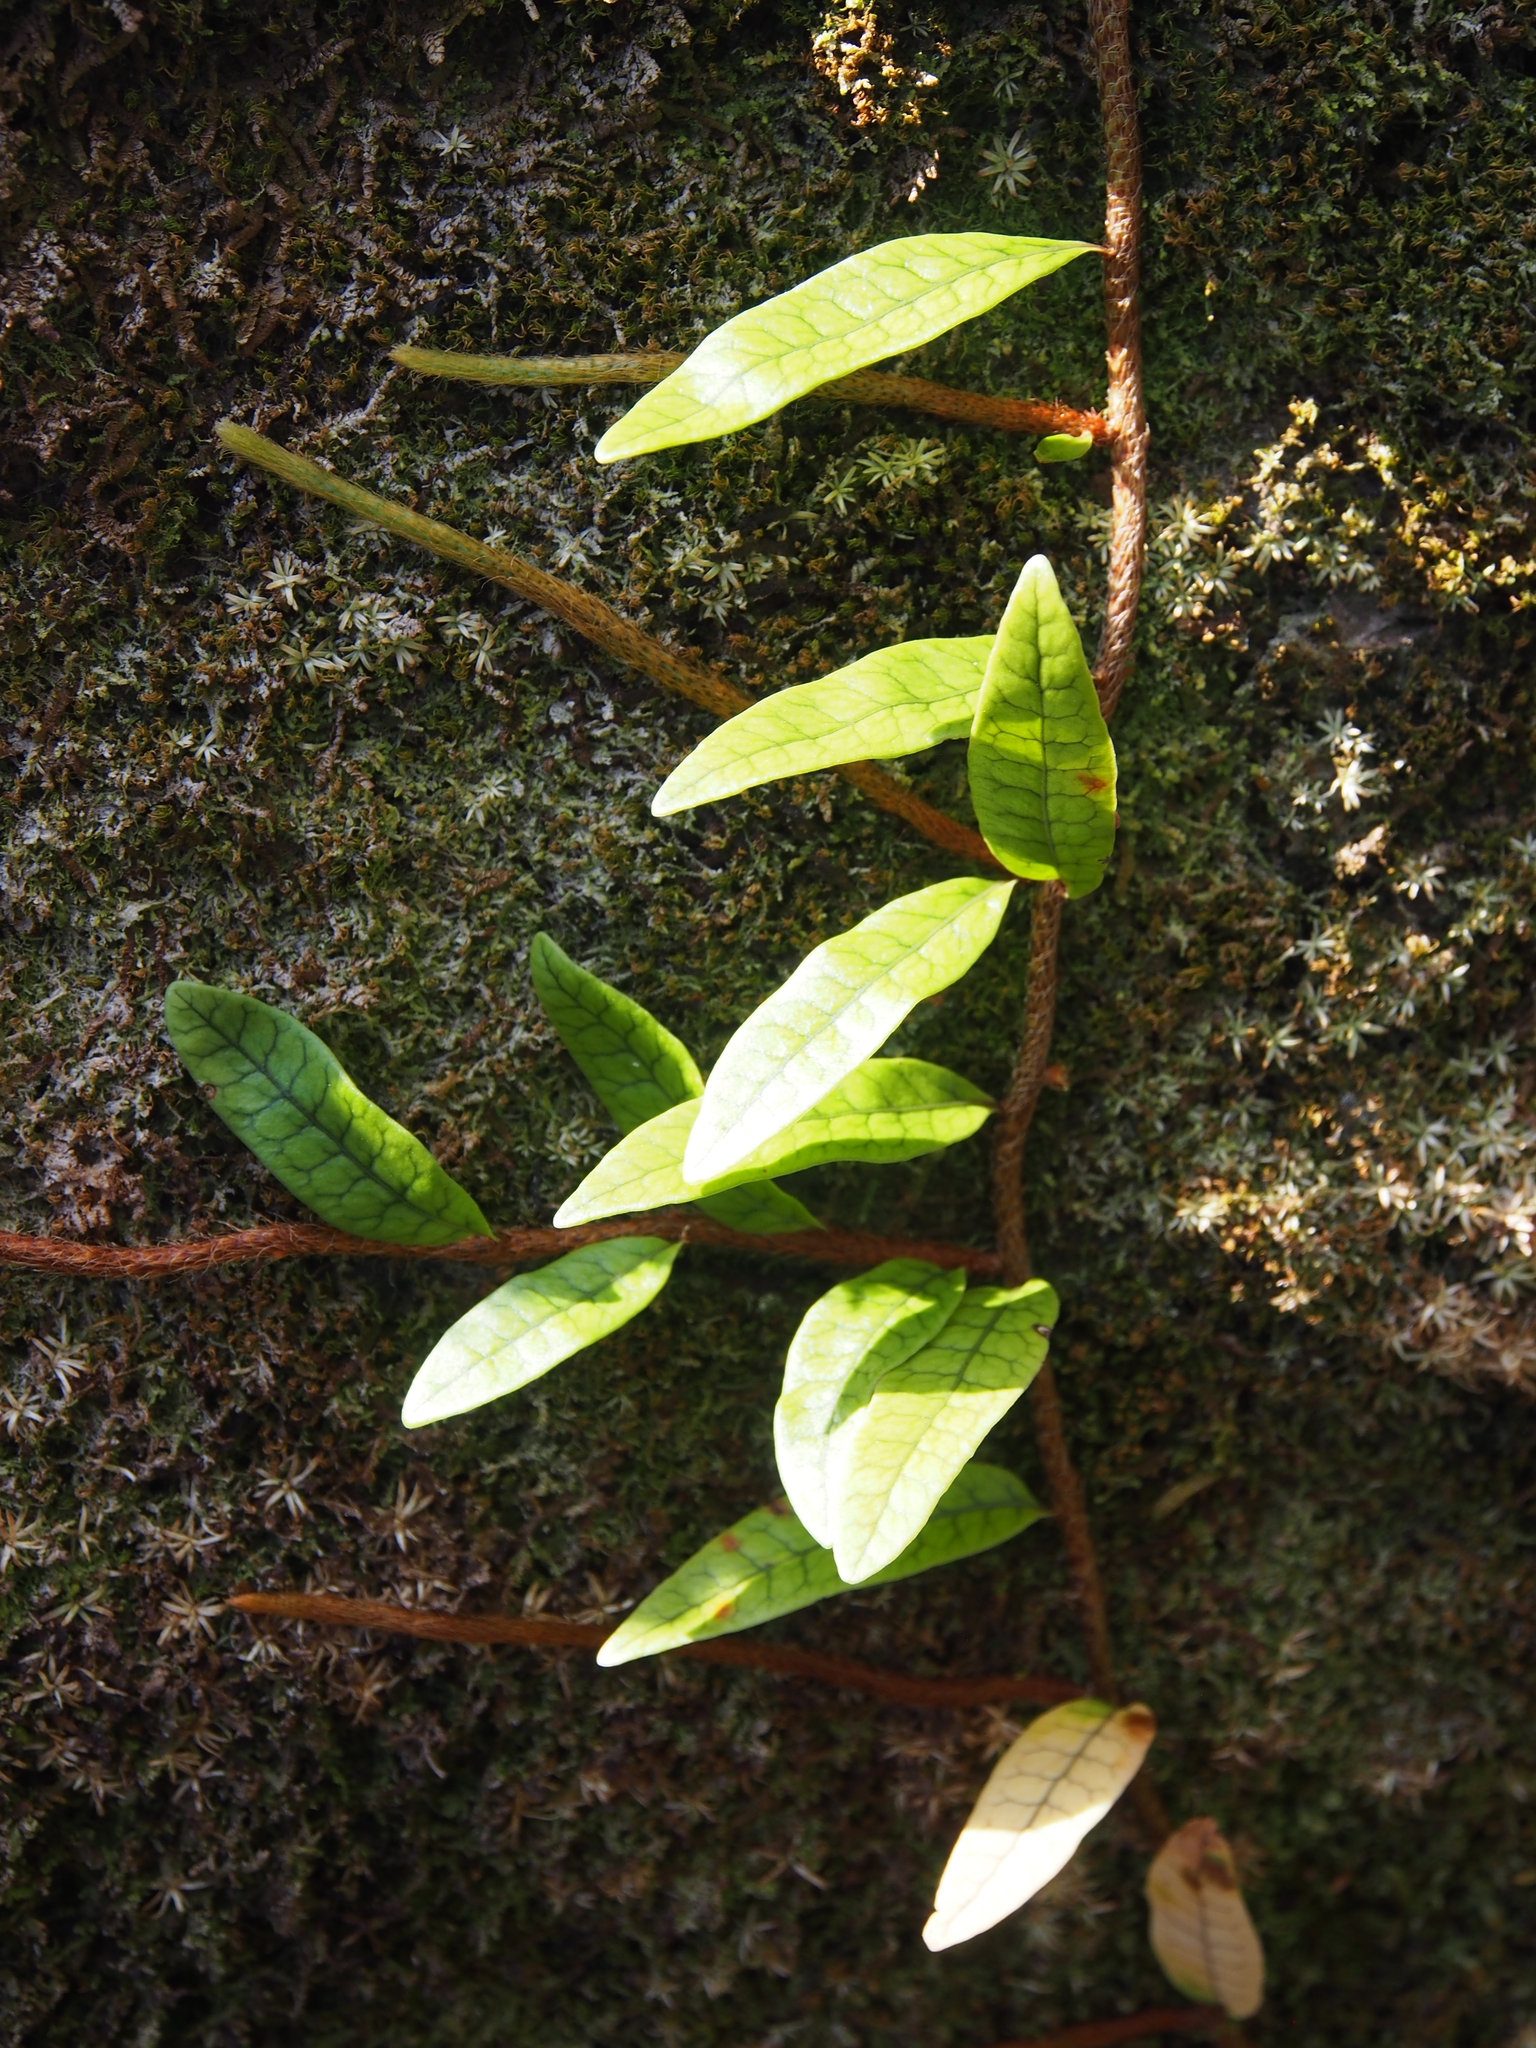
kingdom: Plantae
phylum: Tracheophyta
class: Polypodiopsida
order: Polypodiales
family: Polypodiaceae
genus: Microgramma
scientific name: Microgramma lycopodioides
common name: Bastard catclaw
